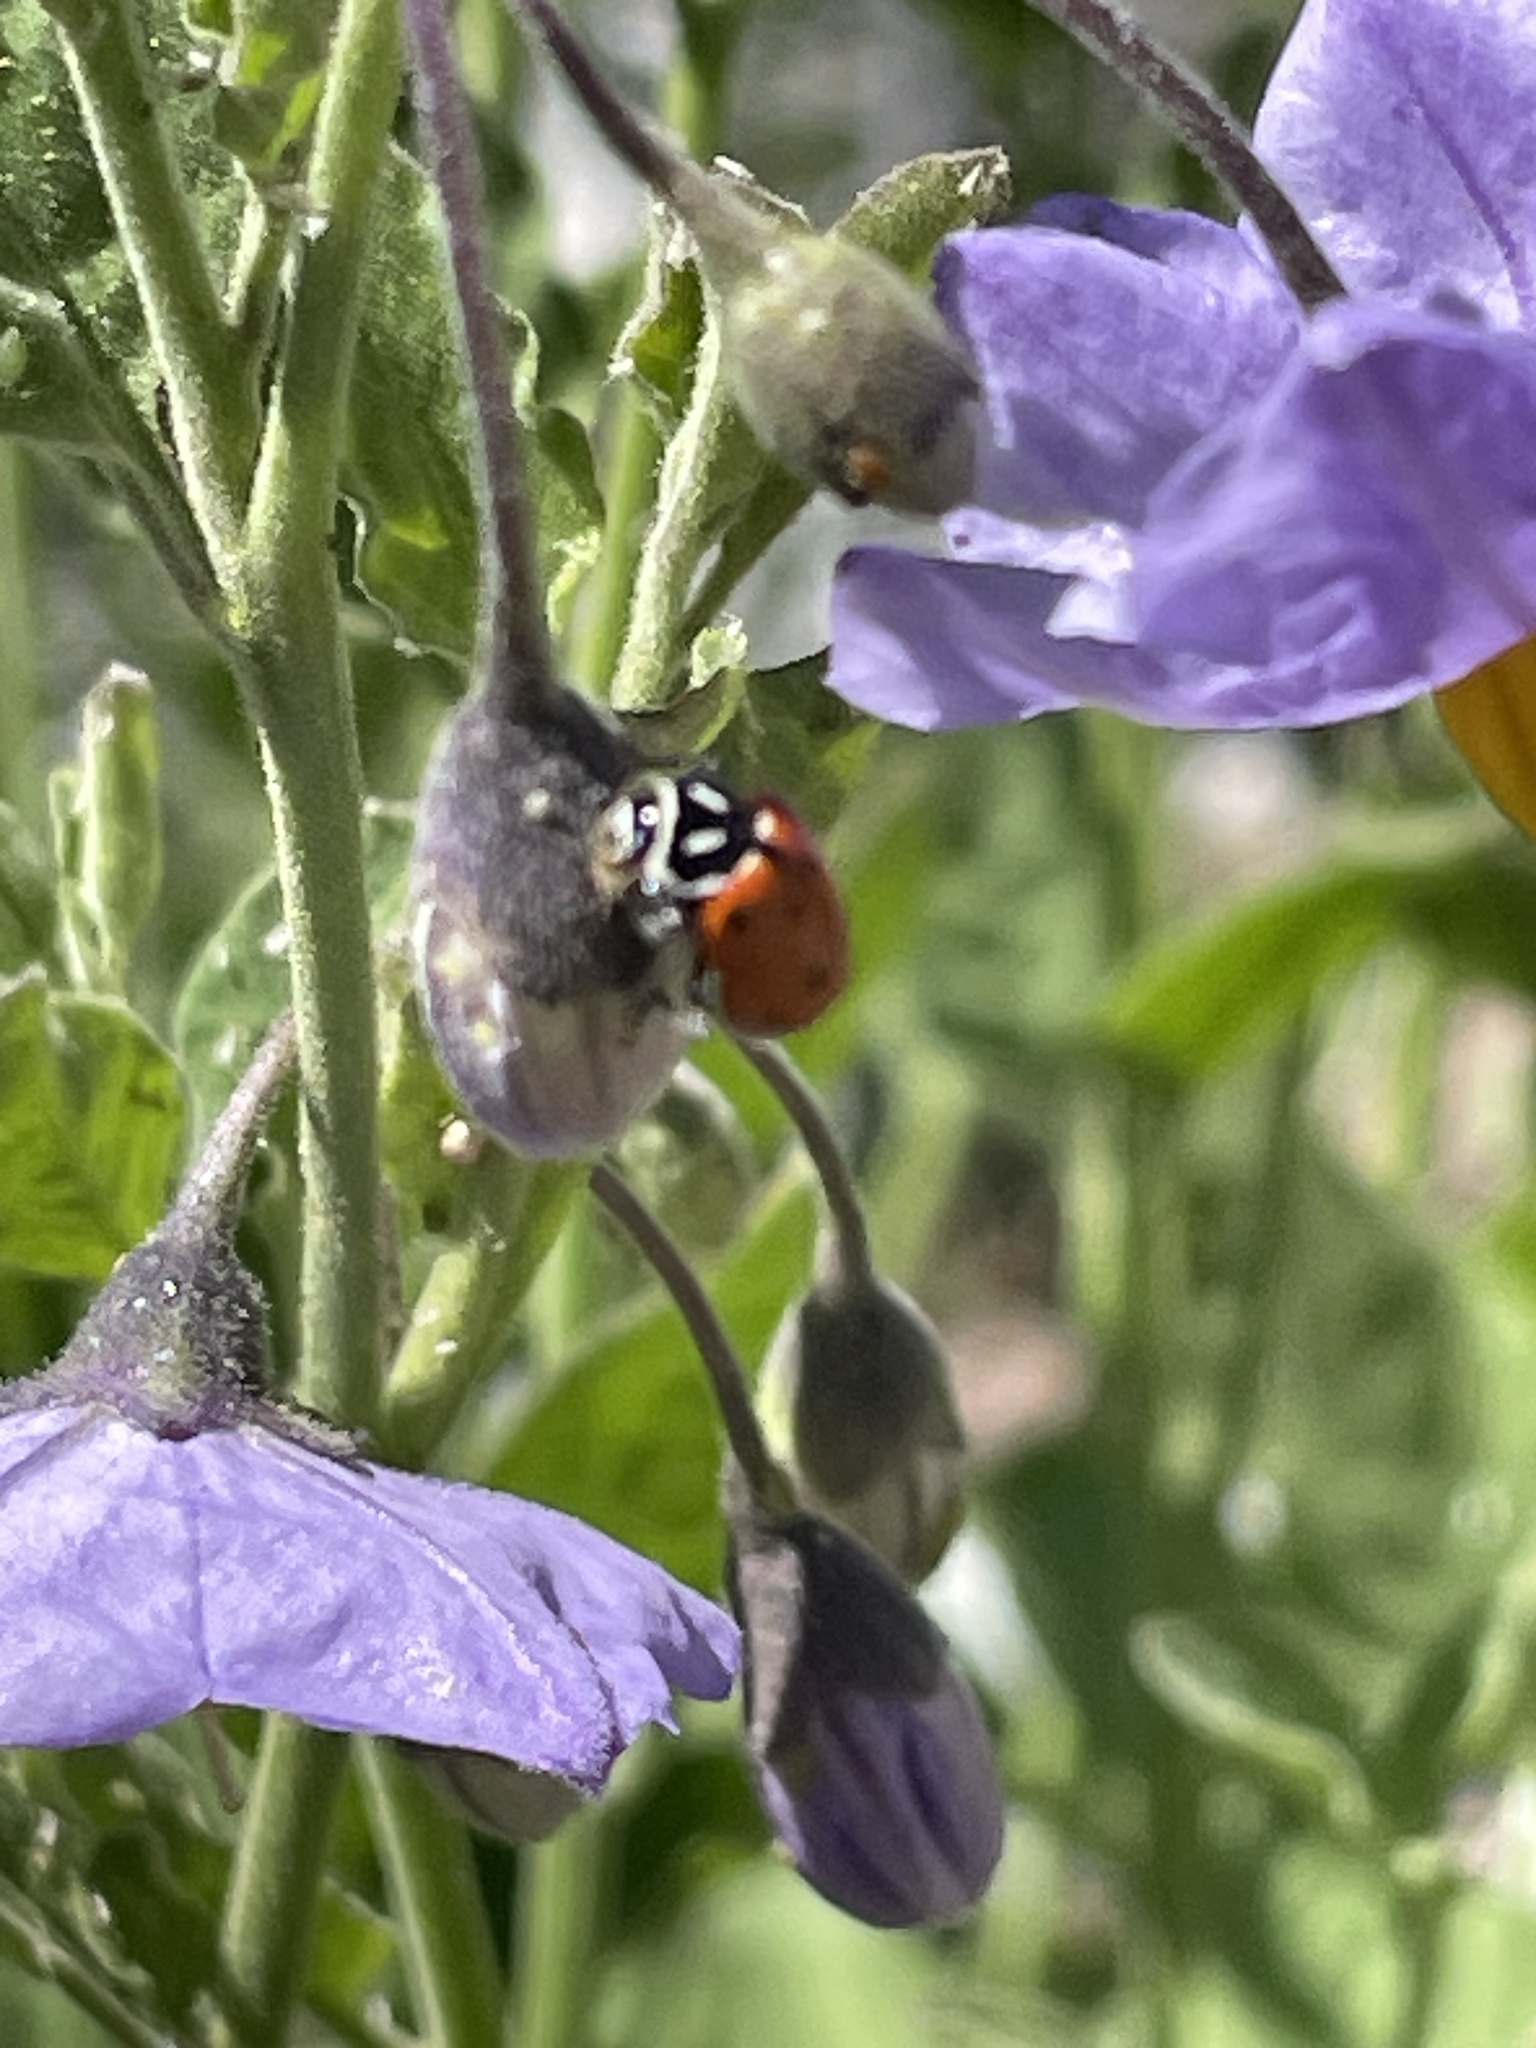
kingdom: Animalia
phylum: Arthropoda
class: Insecta
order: Coleoptera
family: Coccinellidae
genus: Hippodamia
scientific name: Hippodamia convergens
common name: Convergent lady beetle
